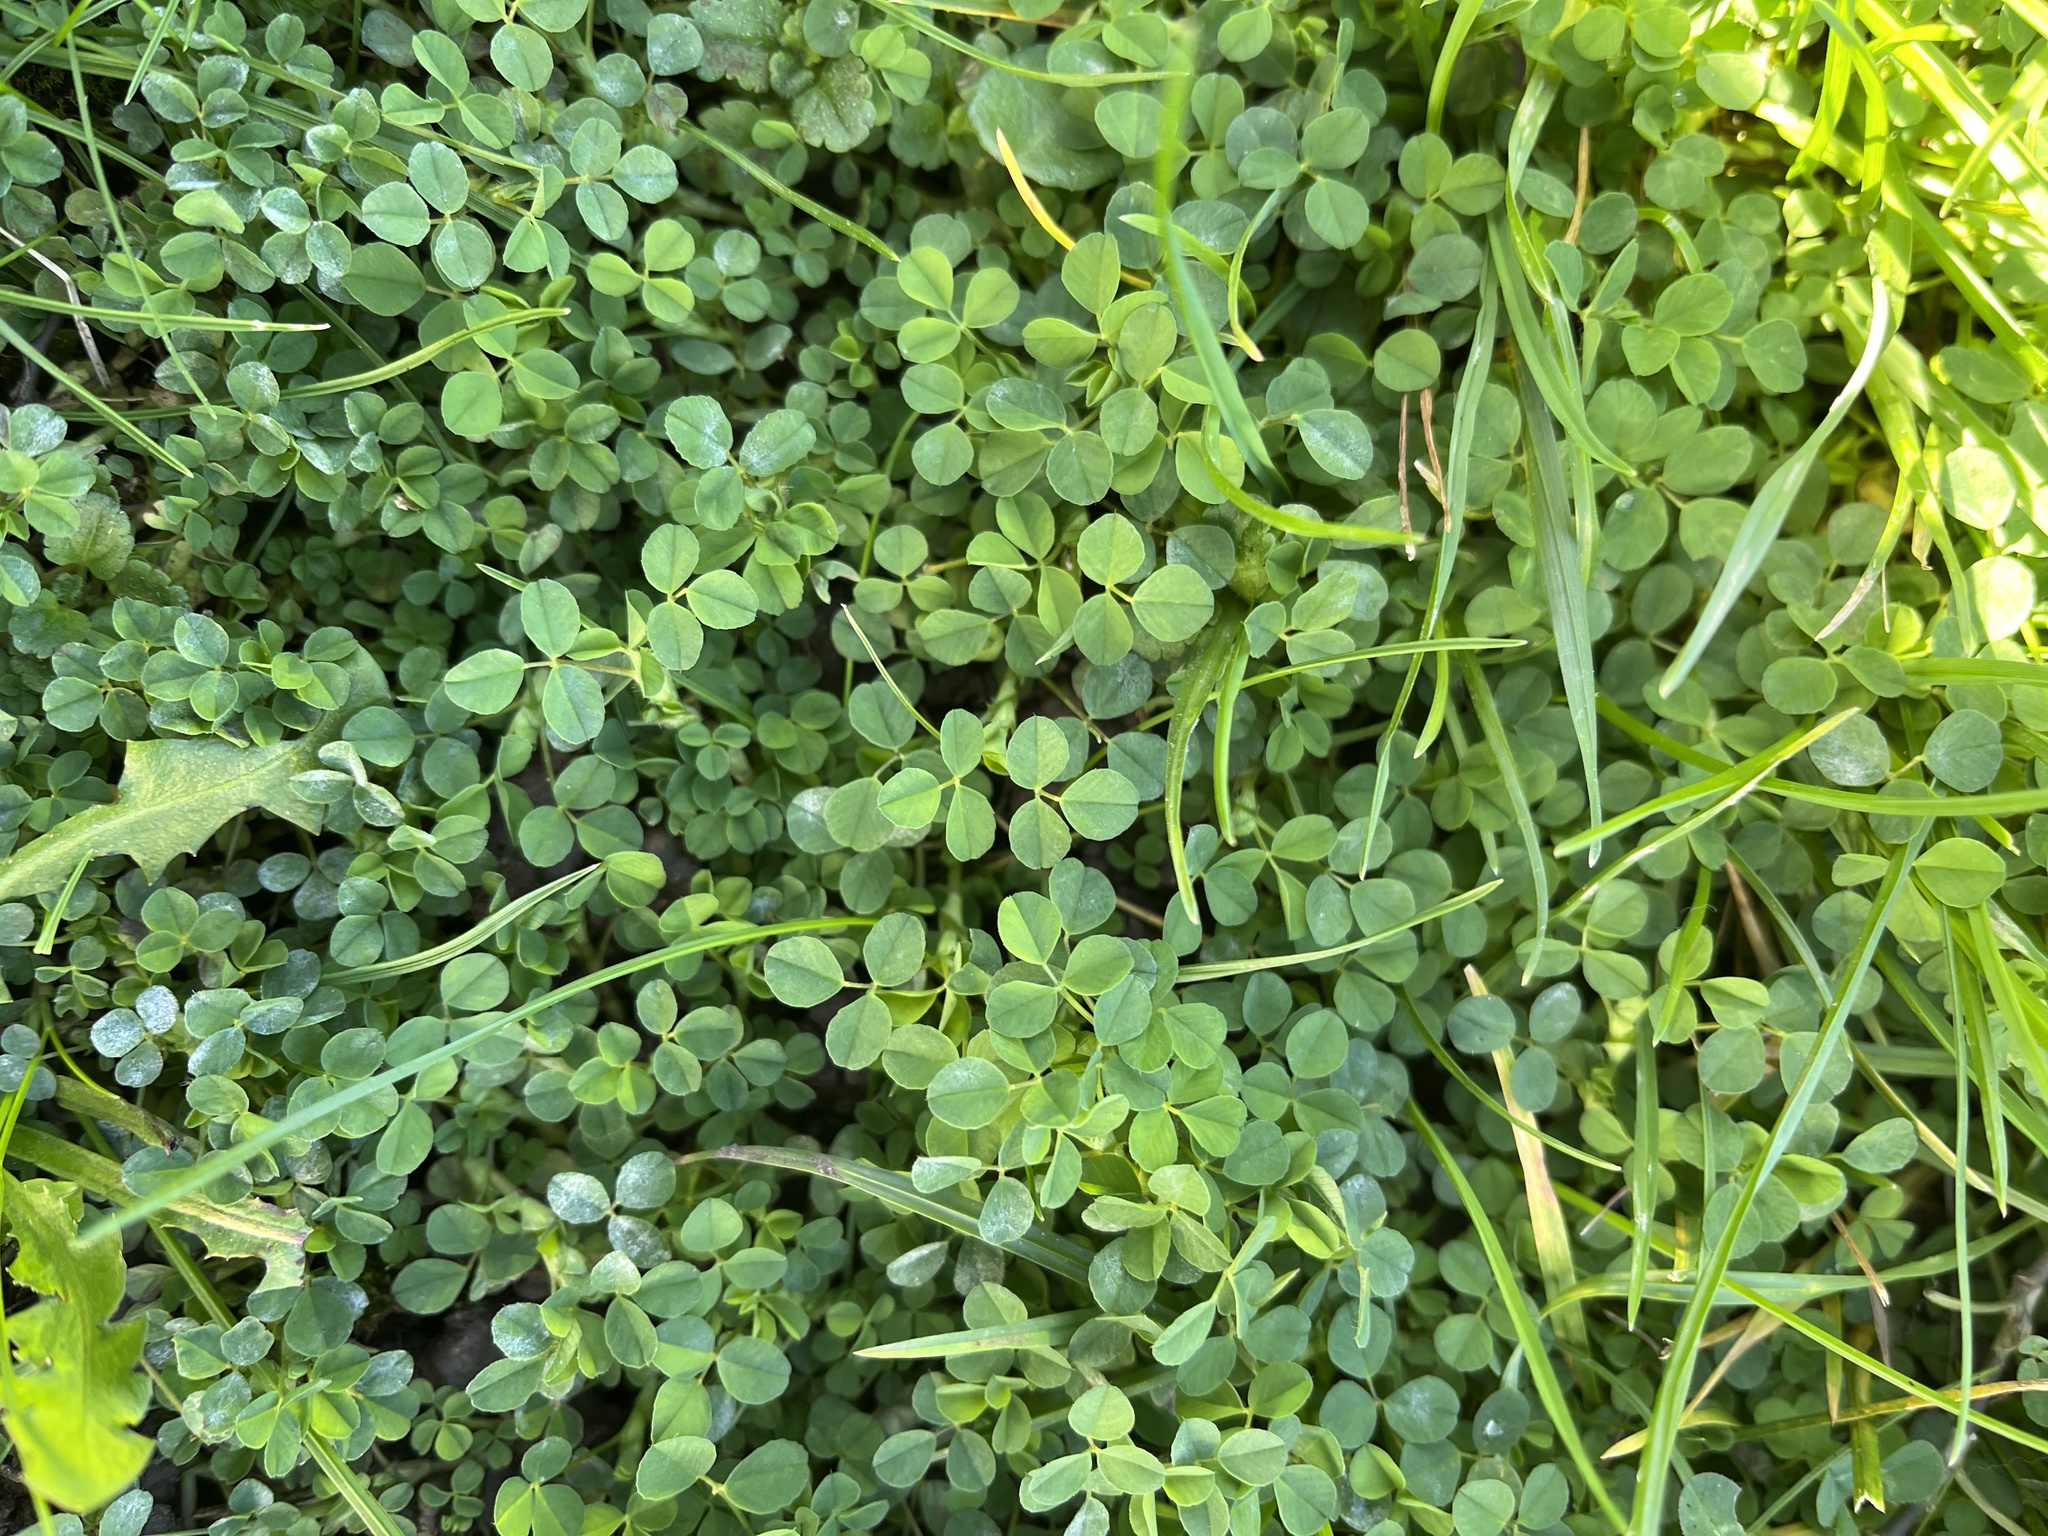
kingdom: Plantae
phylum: Tracheophyta
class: Magnoliopsida
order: Fabales
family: Fabaceae
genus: Medicago
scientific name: Medicago lupulina
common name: Black medick
